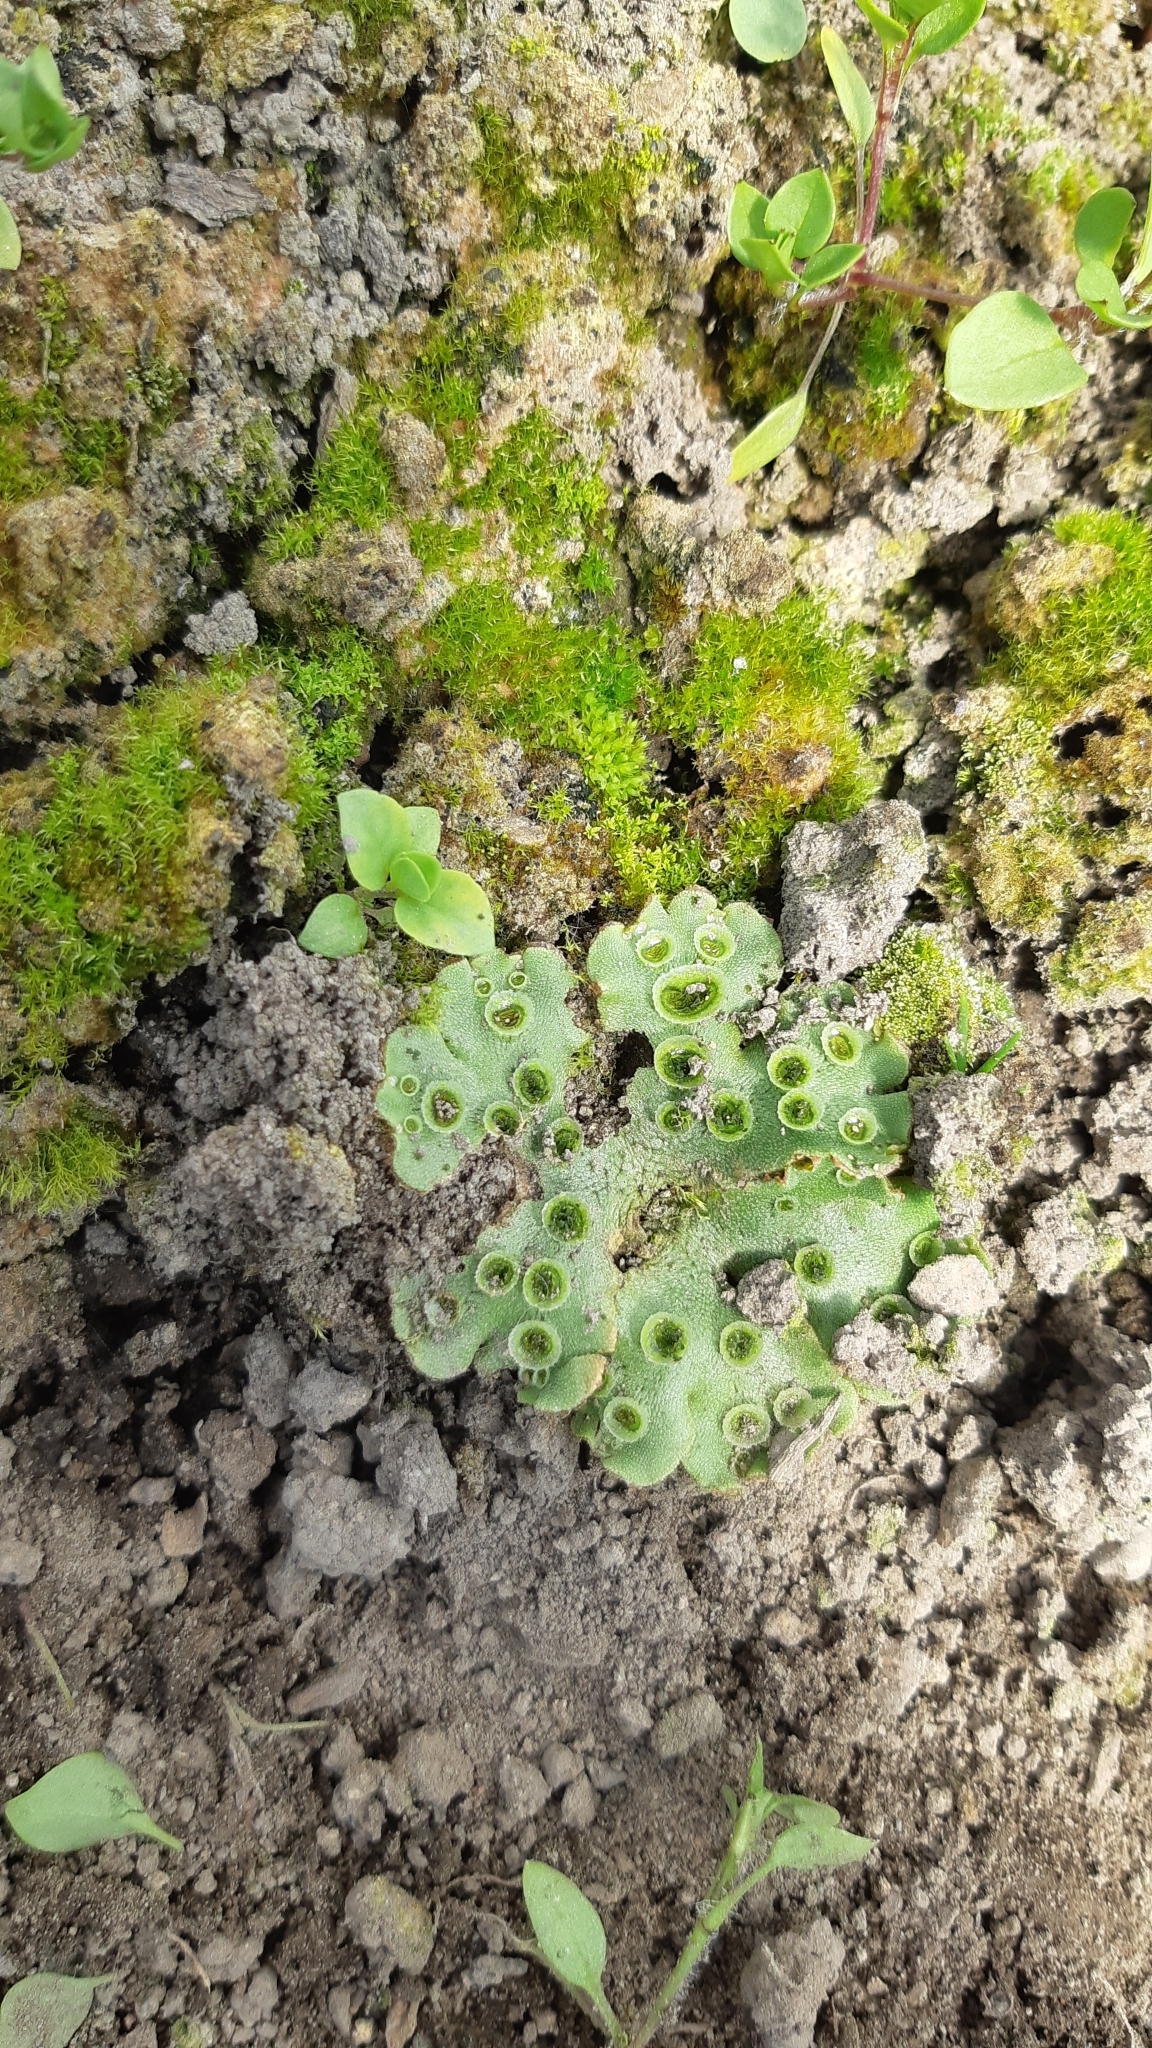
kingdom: Plantae
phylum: Marchantiophyta
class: Marchantiopsida
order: Marchantiales
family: Marchantiaceae
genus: Marchantia
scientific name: Marchantia polymorpha
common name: Common liverwort
